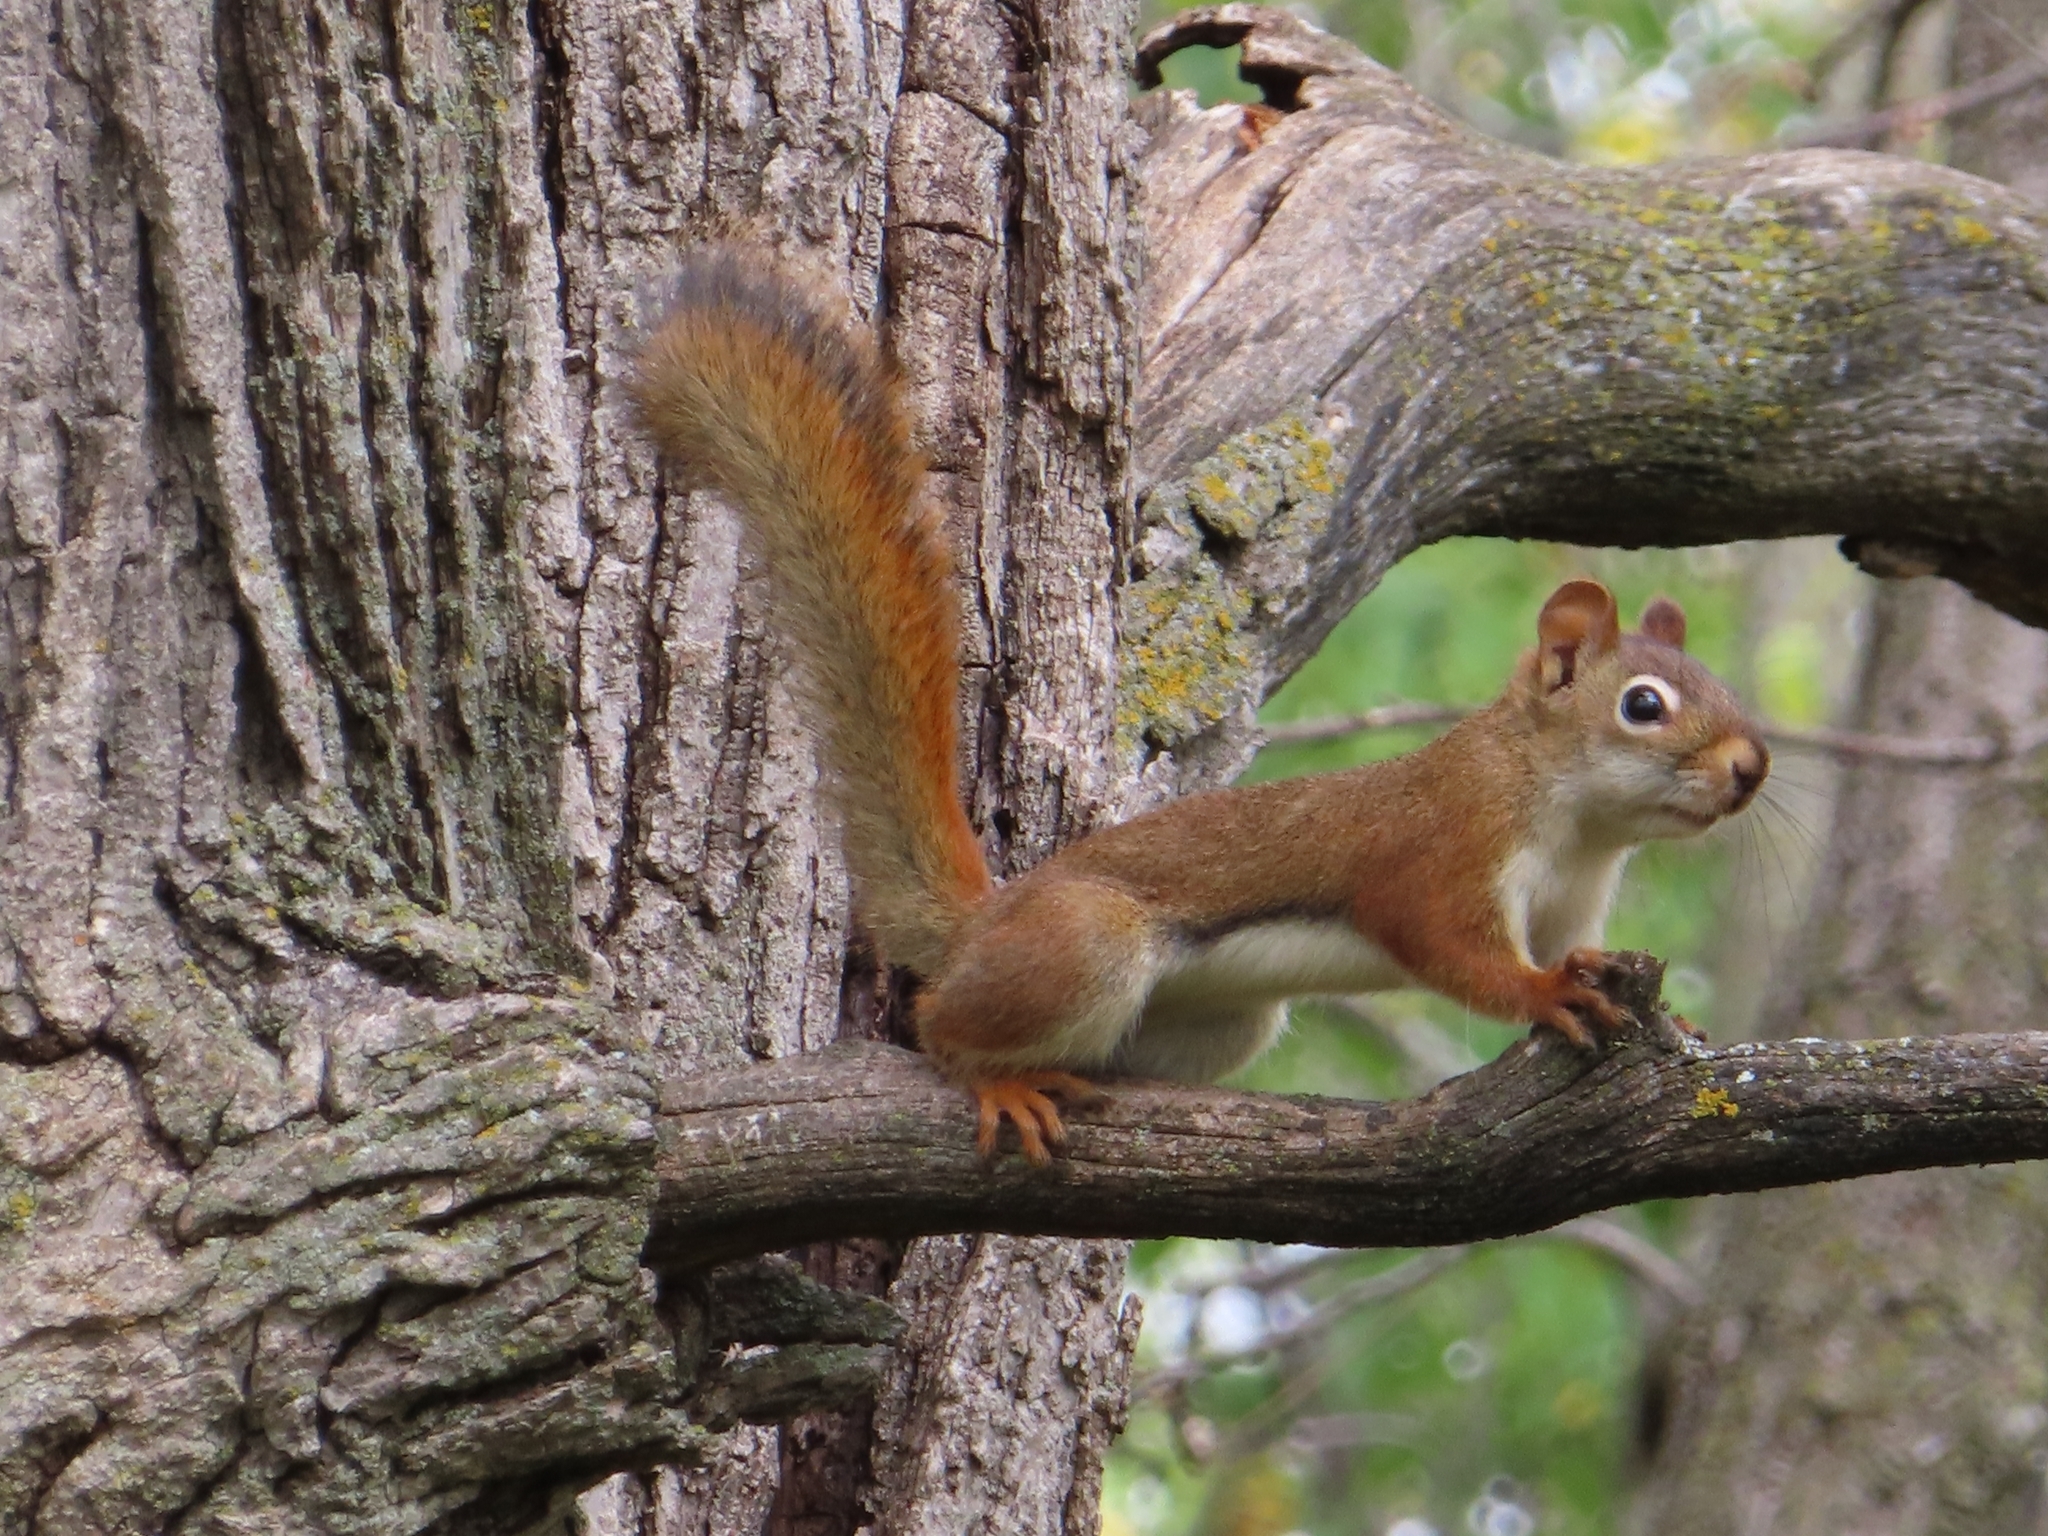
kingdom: Animalia
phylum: Chordata
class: Mammalia
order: Rodentia
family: Sciuridae
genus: Tamiasciurus
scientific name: Tamiasciurus hudsonicus
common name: Red squirrel
